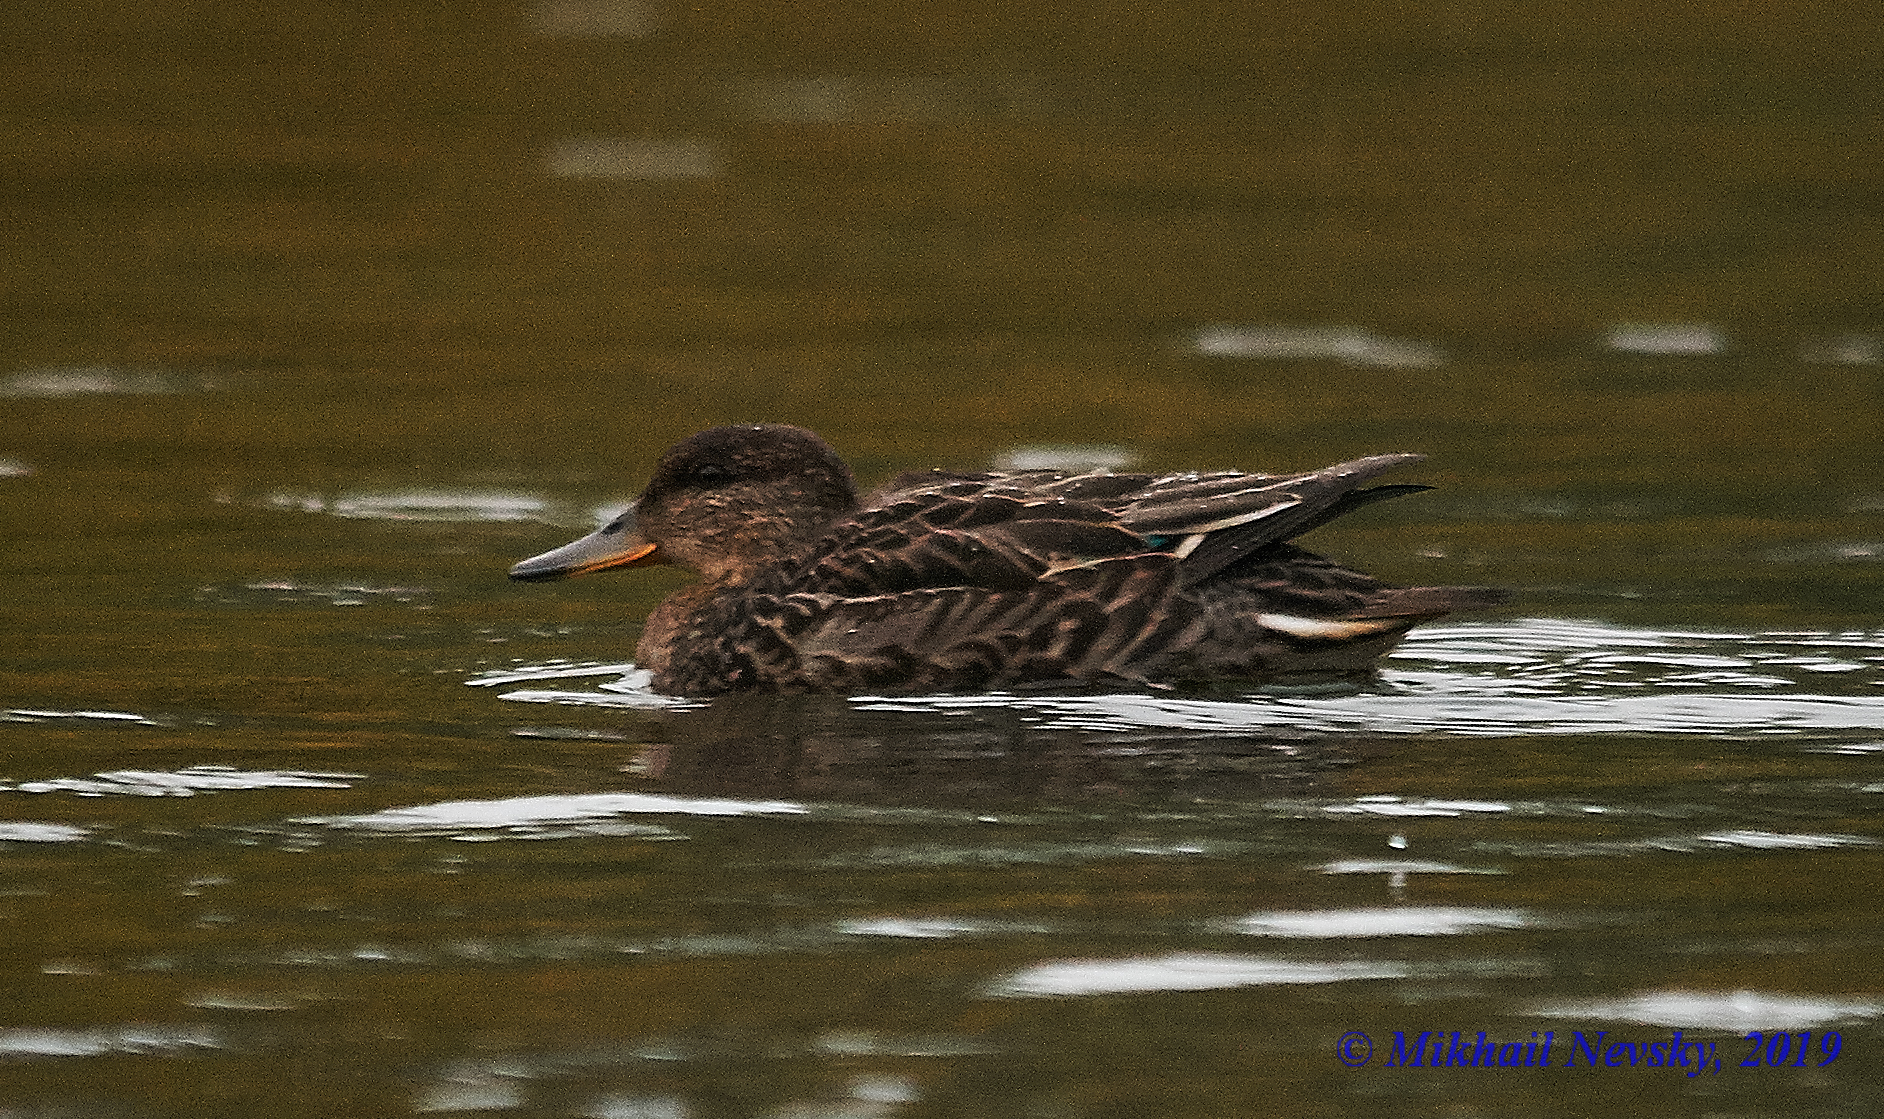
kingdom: Animalia
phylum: Chordata
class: Aves
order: Anseriformes
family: Anatidae
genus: Anas
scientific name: Anas crecca
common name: Eurasian teal
